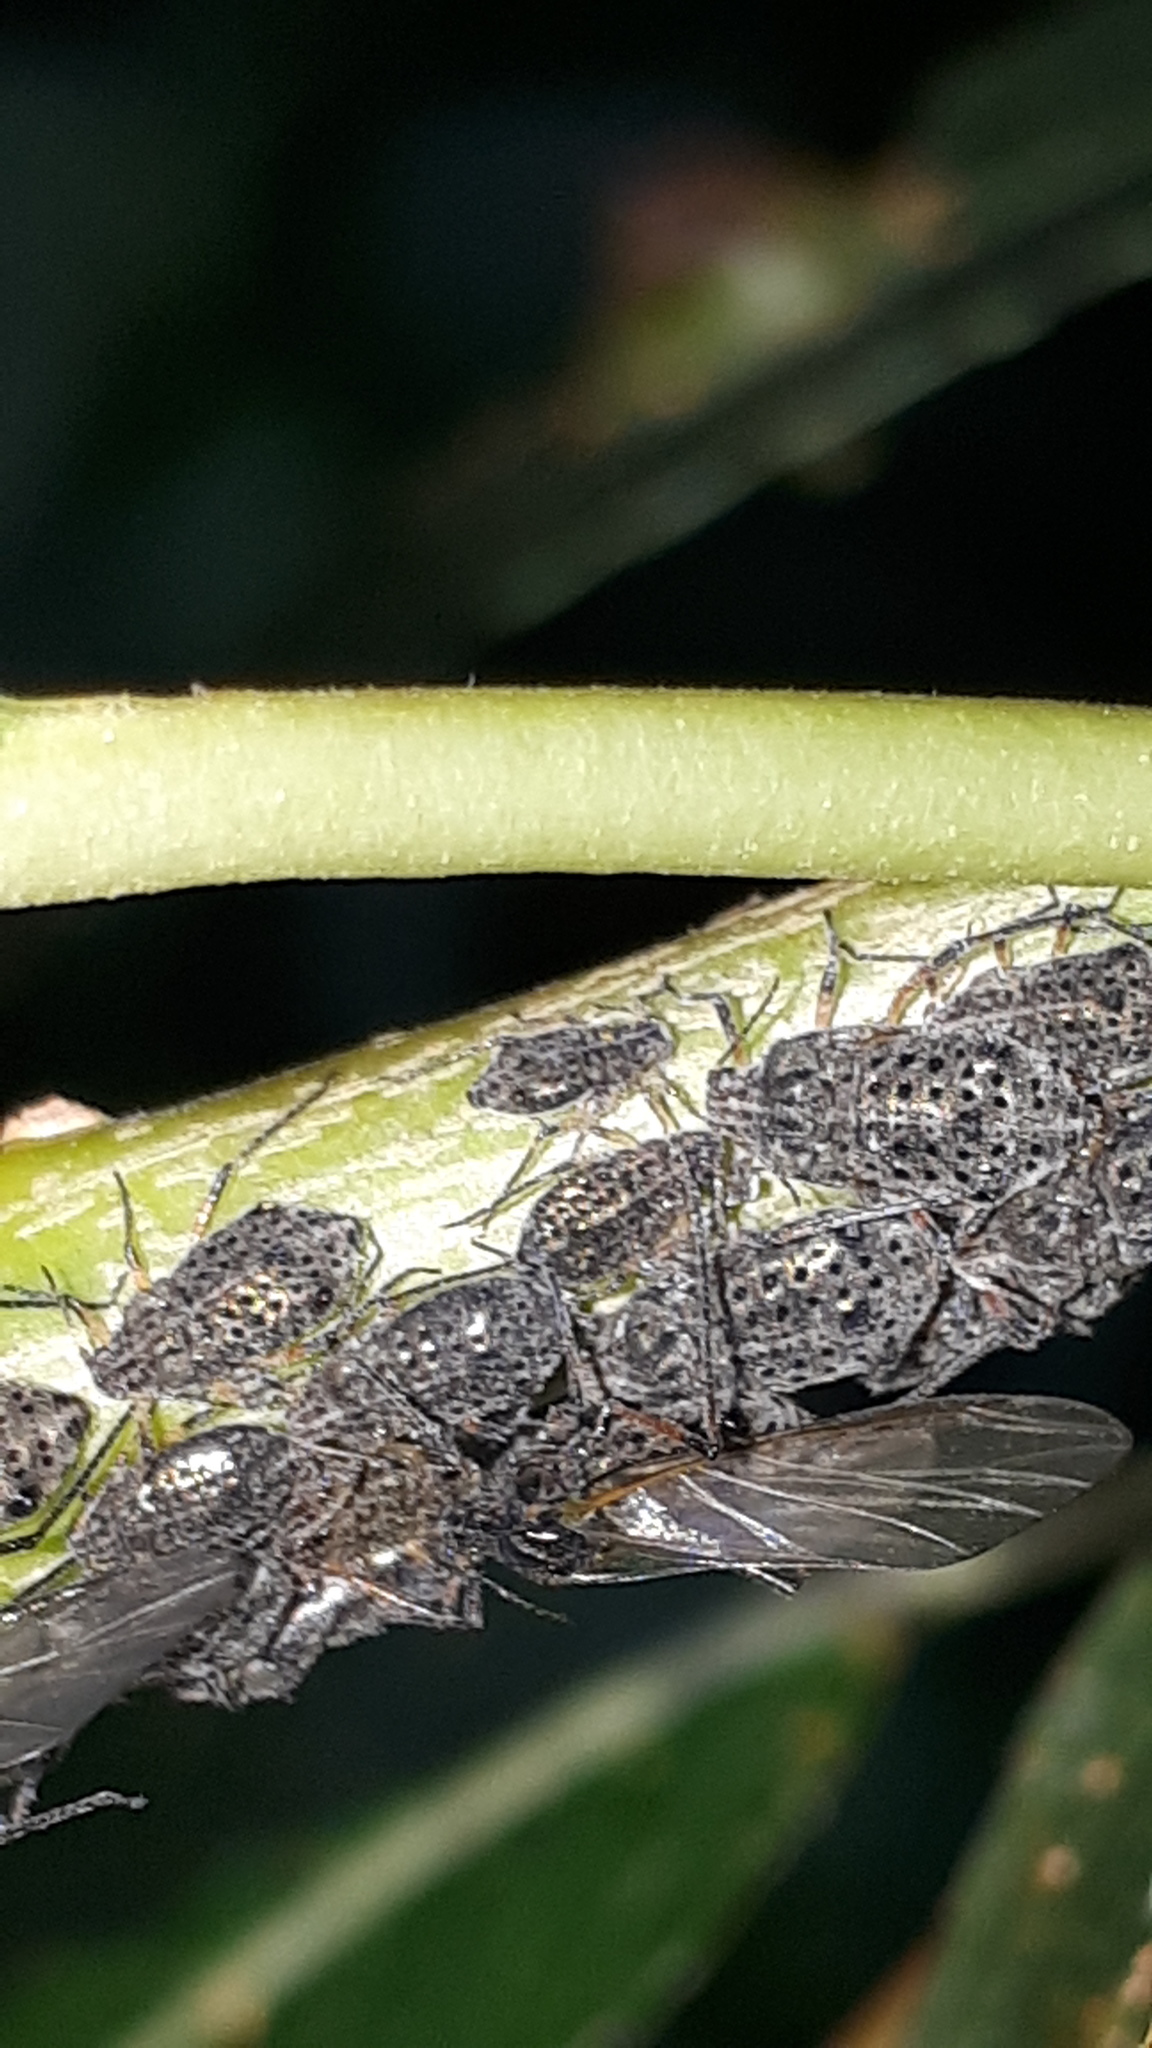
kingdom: Animalia
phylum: Arthropoda
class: Insecta
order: Hemiptera
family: Aphididae
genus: Tuberolachnus
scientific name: Tuberolachnus salignus
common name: Giant willow aphid
